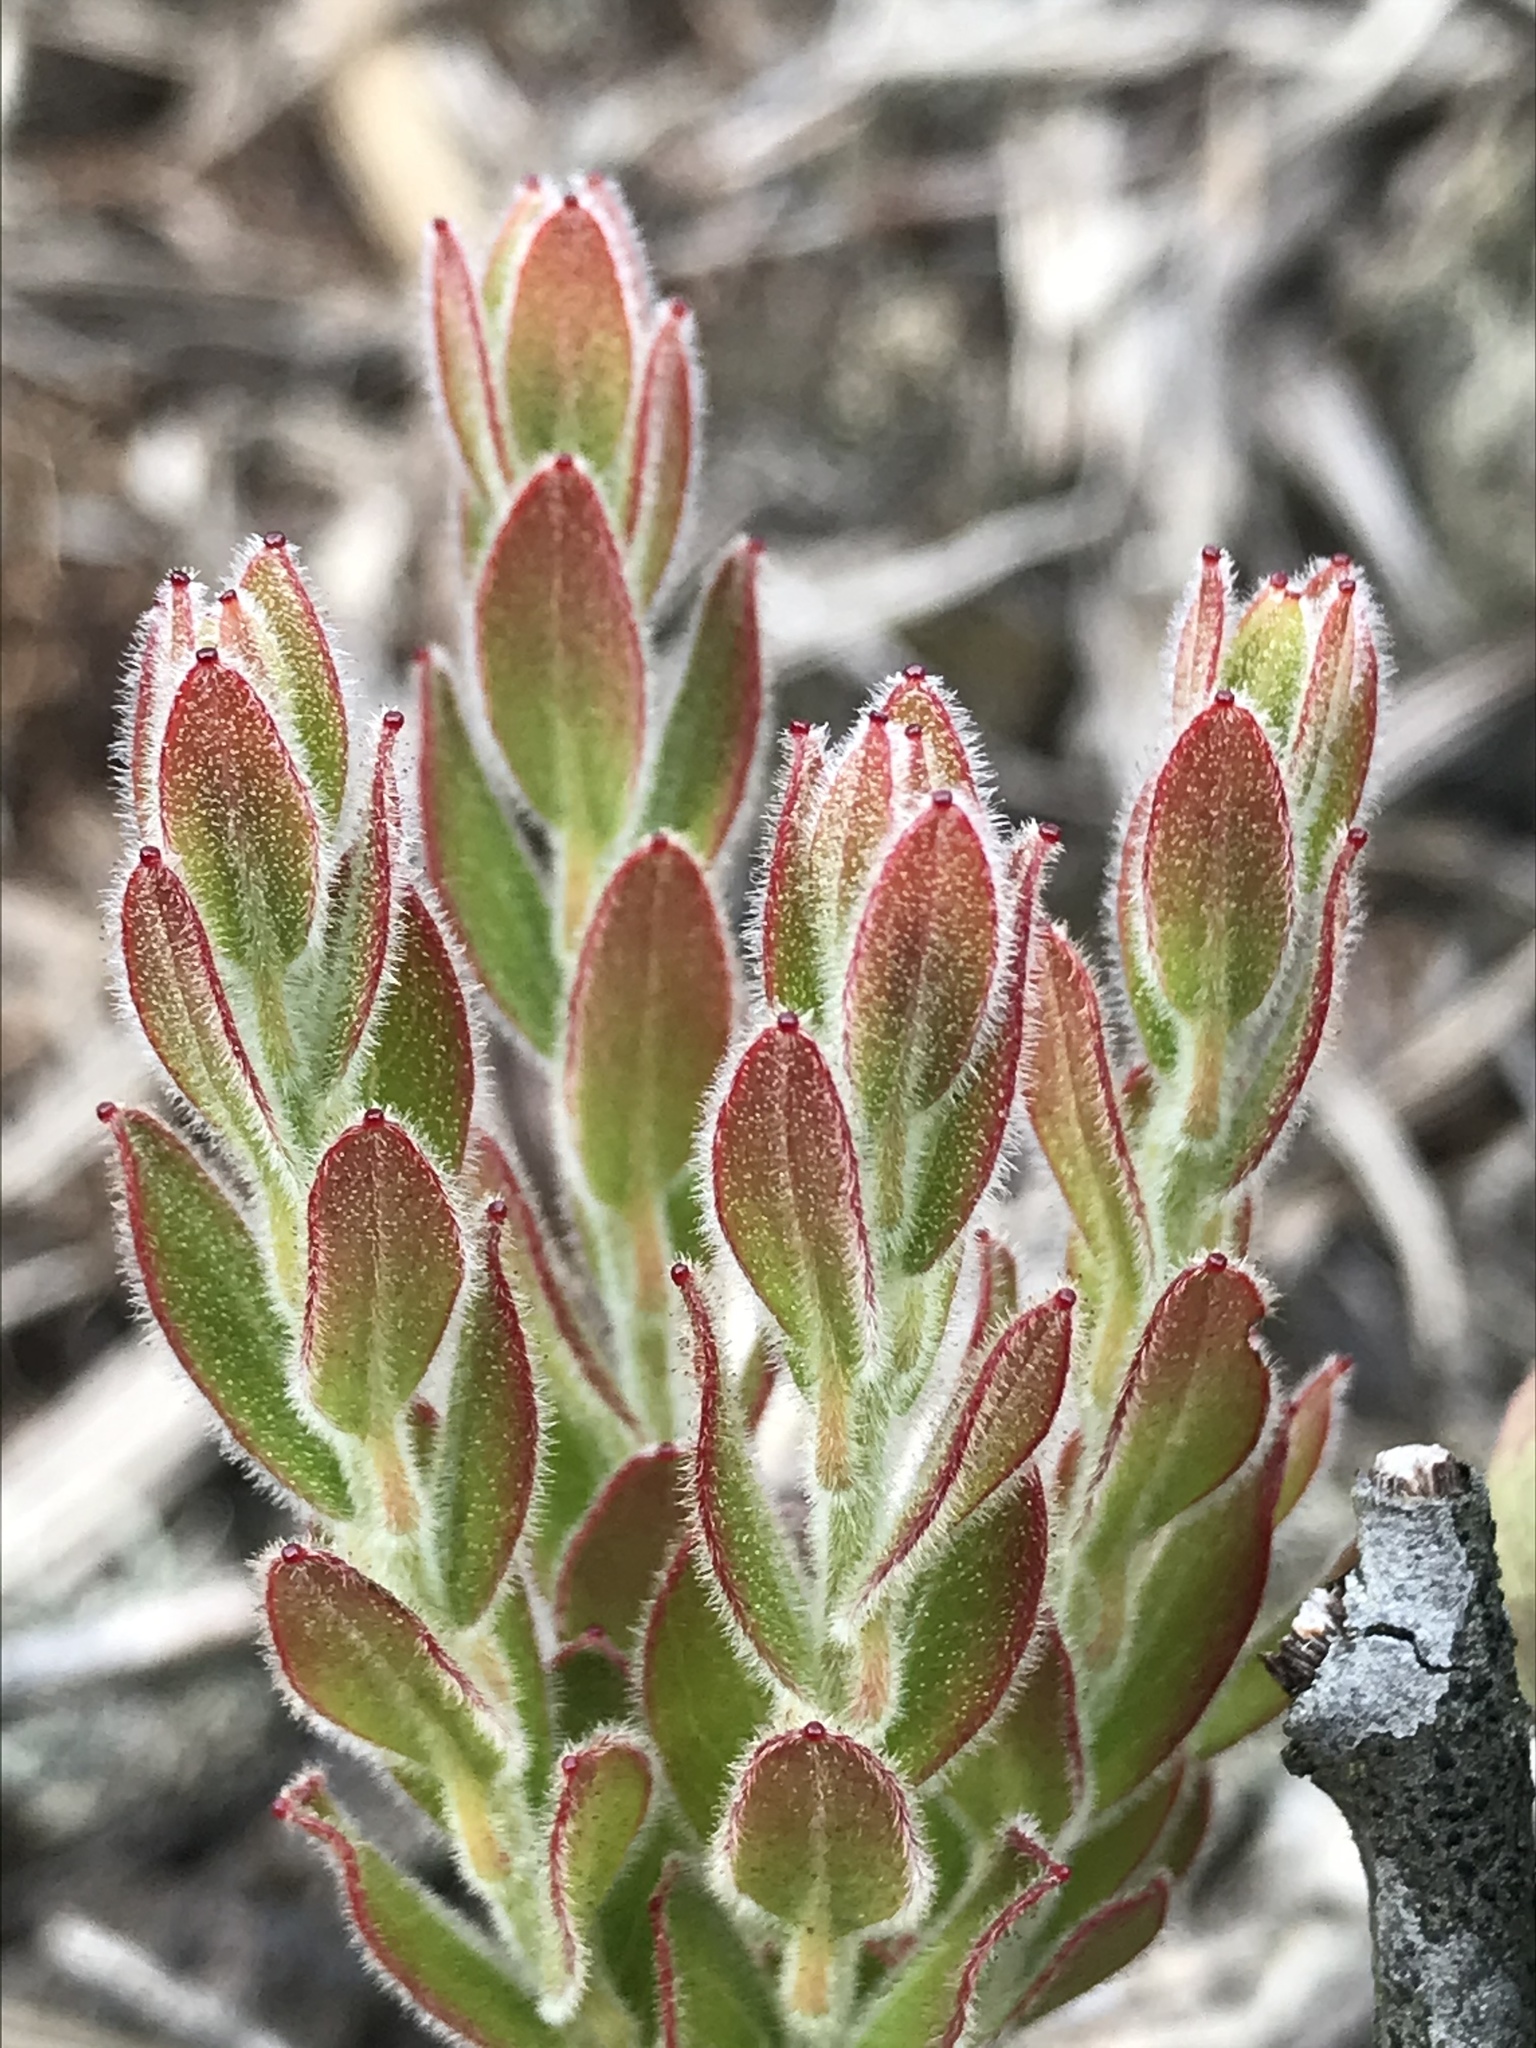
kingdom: Plantae
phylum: Tracheophyta
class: Magnoliopsida
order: Ericales
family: Ericaceae
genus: Gaylussacia
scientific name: Gaylussacia buxifolia
